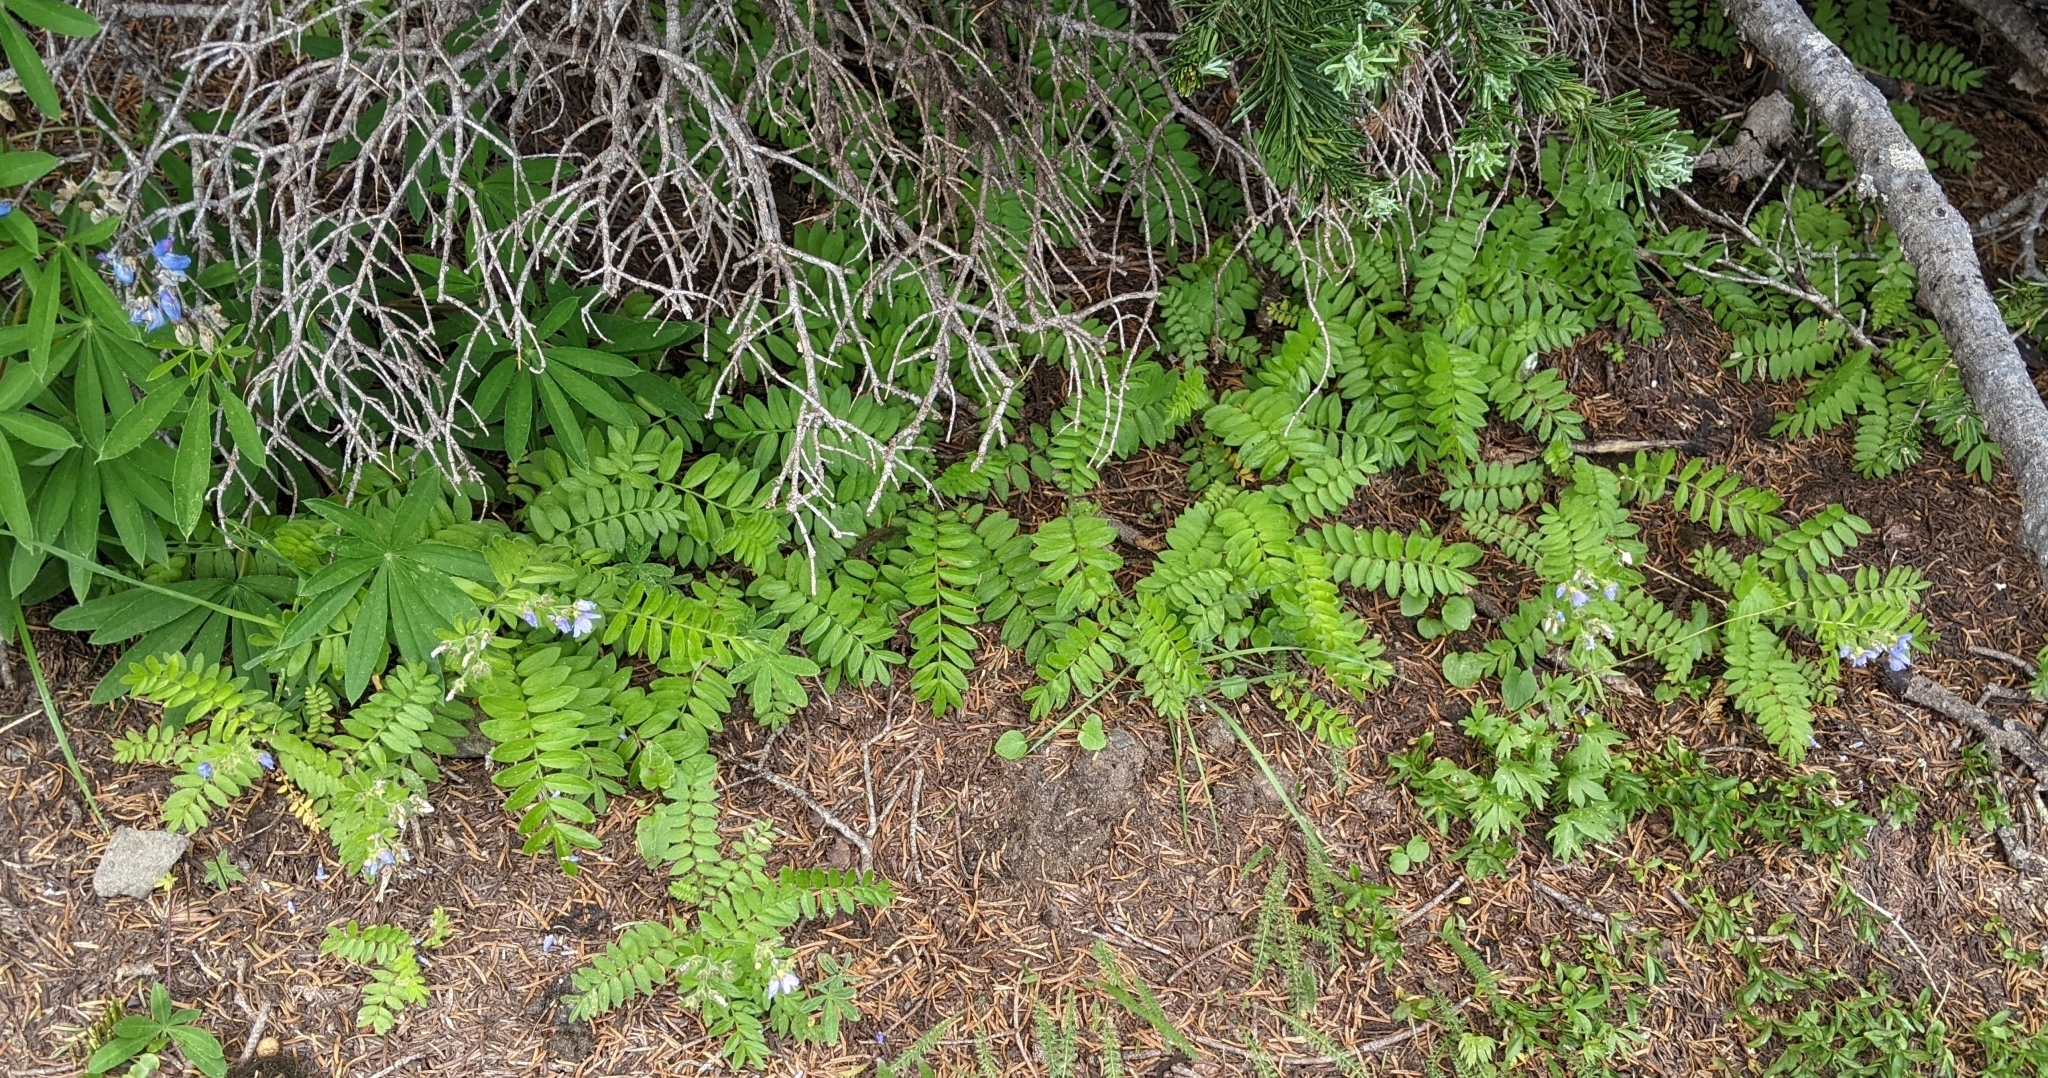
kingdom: Plantae
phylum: Tracheophyta
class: Magnoliopsida
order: Ericales
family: Polemoniaceae
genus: Polemonium
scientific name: Polemonium californicum
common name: California jacob's ladder
